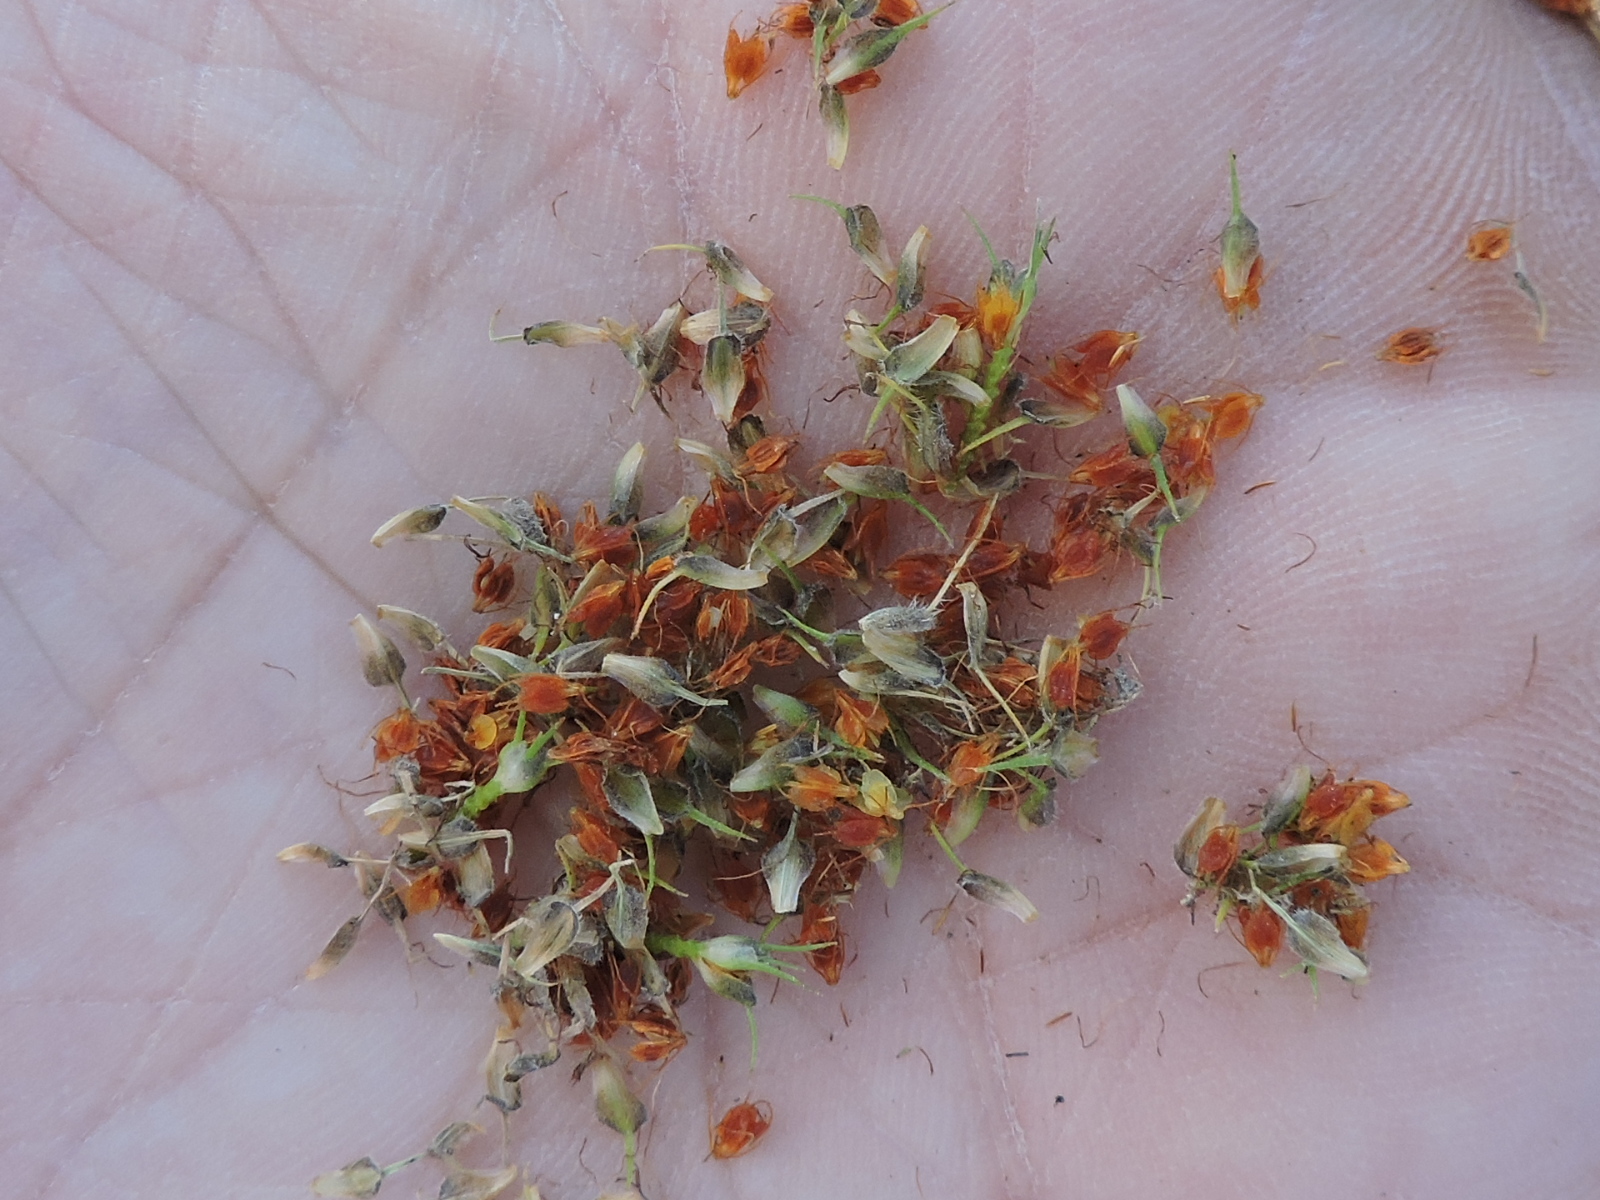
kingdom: Plantae
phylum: Tracheophyta
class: Liliopsida
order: Poales
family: Cyperaceae
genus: Fuirena
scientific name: Fuirena simplex
